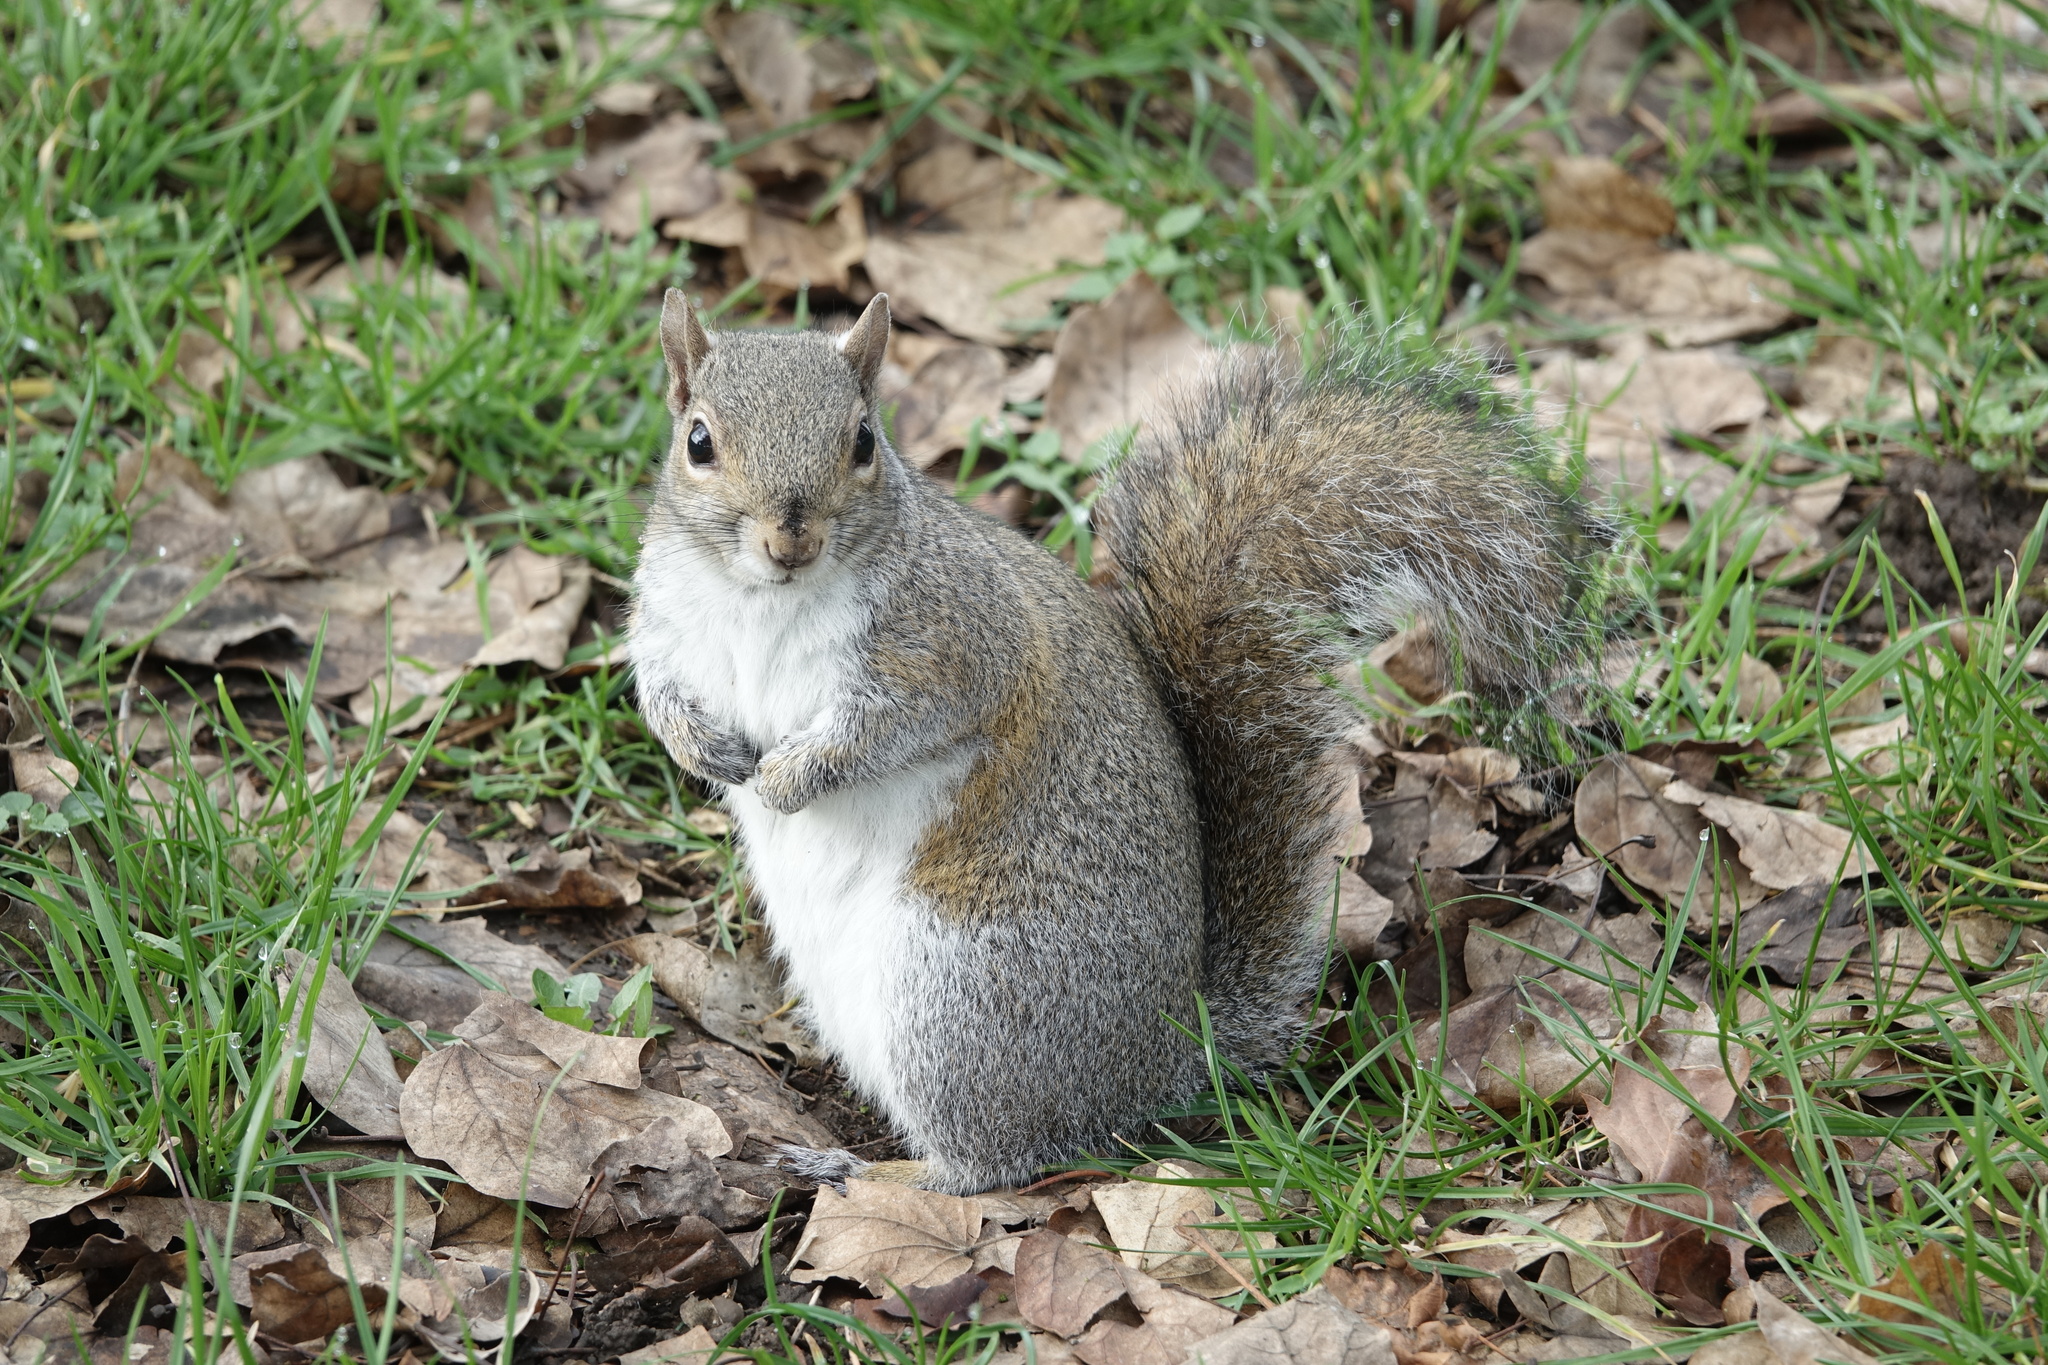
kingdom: Animalia
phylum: Chordata
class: Mammalia
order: Rodentia
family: Sciuridae
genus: Sciurus
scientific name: Sciurus carolinensis
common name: Eastern gray squirrel
